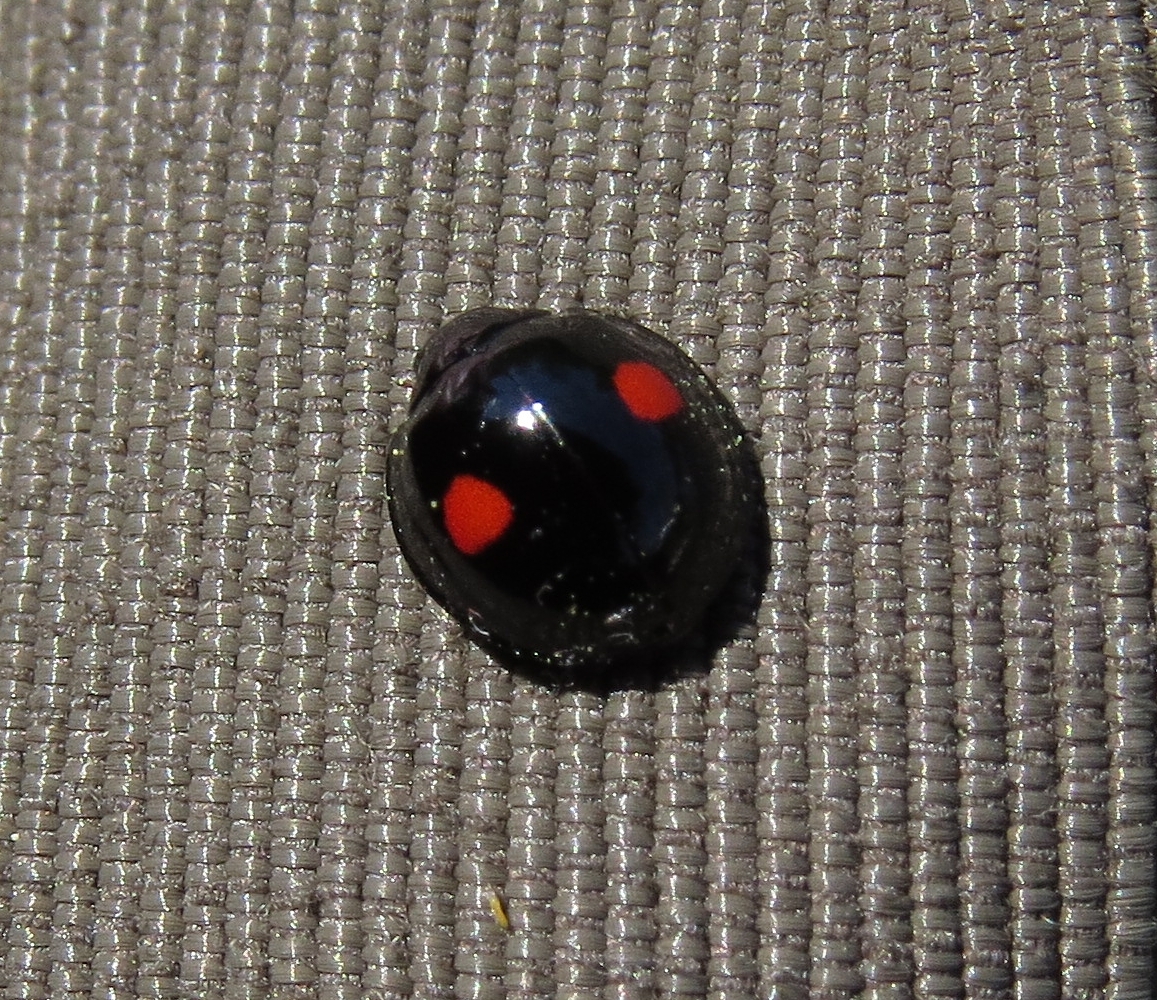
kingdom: Animalia
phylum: Arthropoda
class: Insecta
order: Coleoptera
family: Coccinellidae
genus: Chilocorus
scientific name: Chilocorus stigma
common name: Twicestabbed lady beetle
